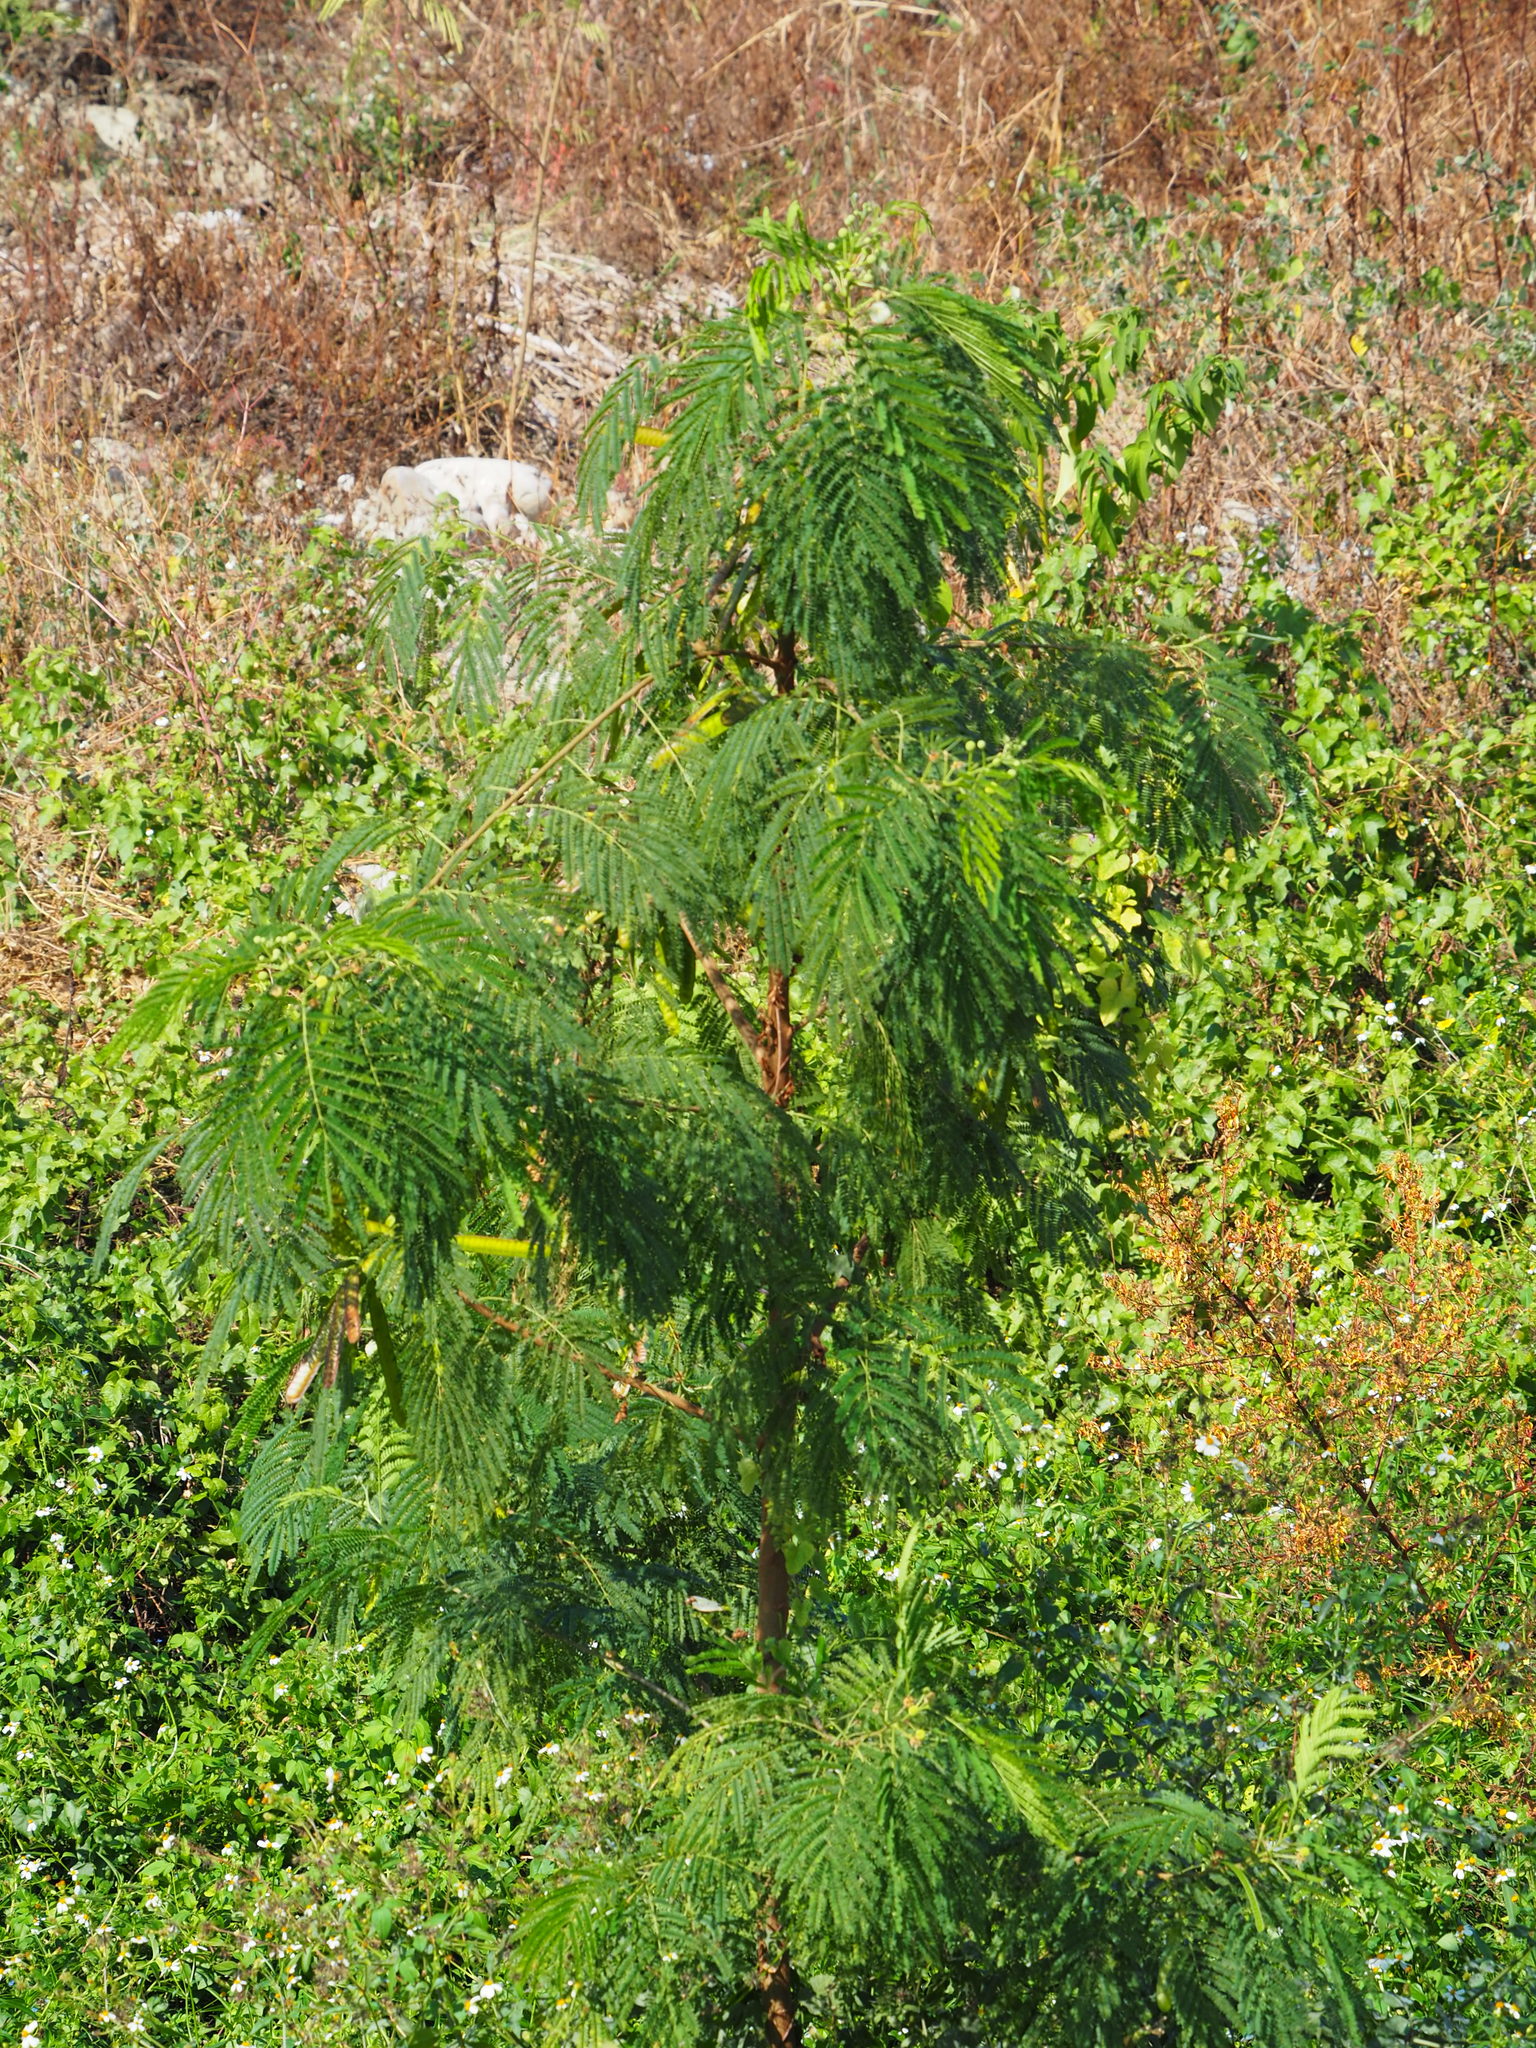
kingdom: Plantae
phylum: Tracheophyta
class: Magnoliopsida
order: Fabales
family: Fabaceae
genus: Leucaena
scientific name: Leucaena leucocephala
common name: White leadtree
